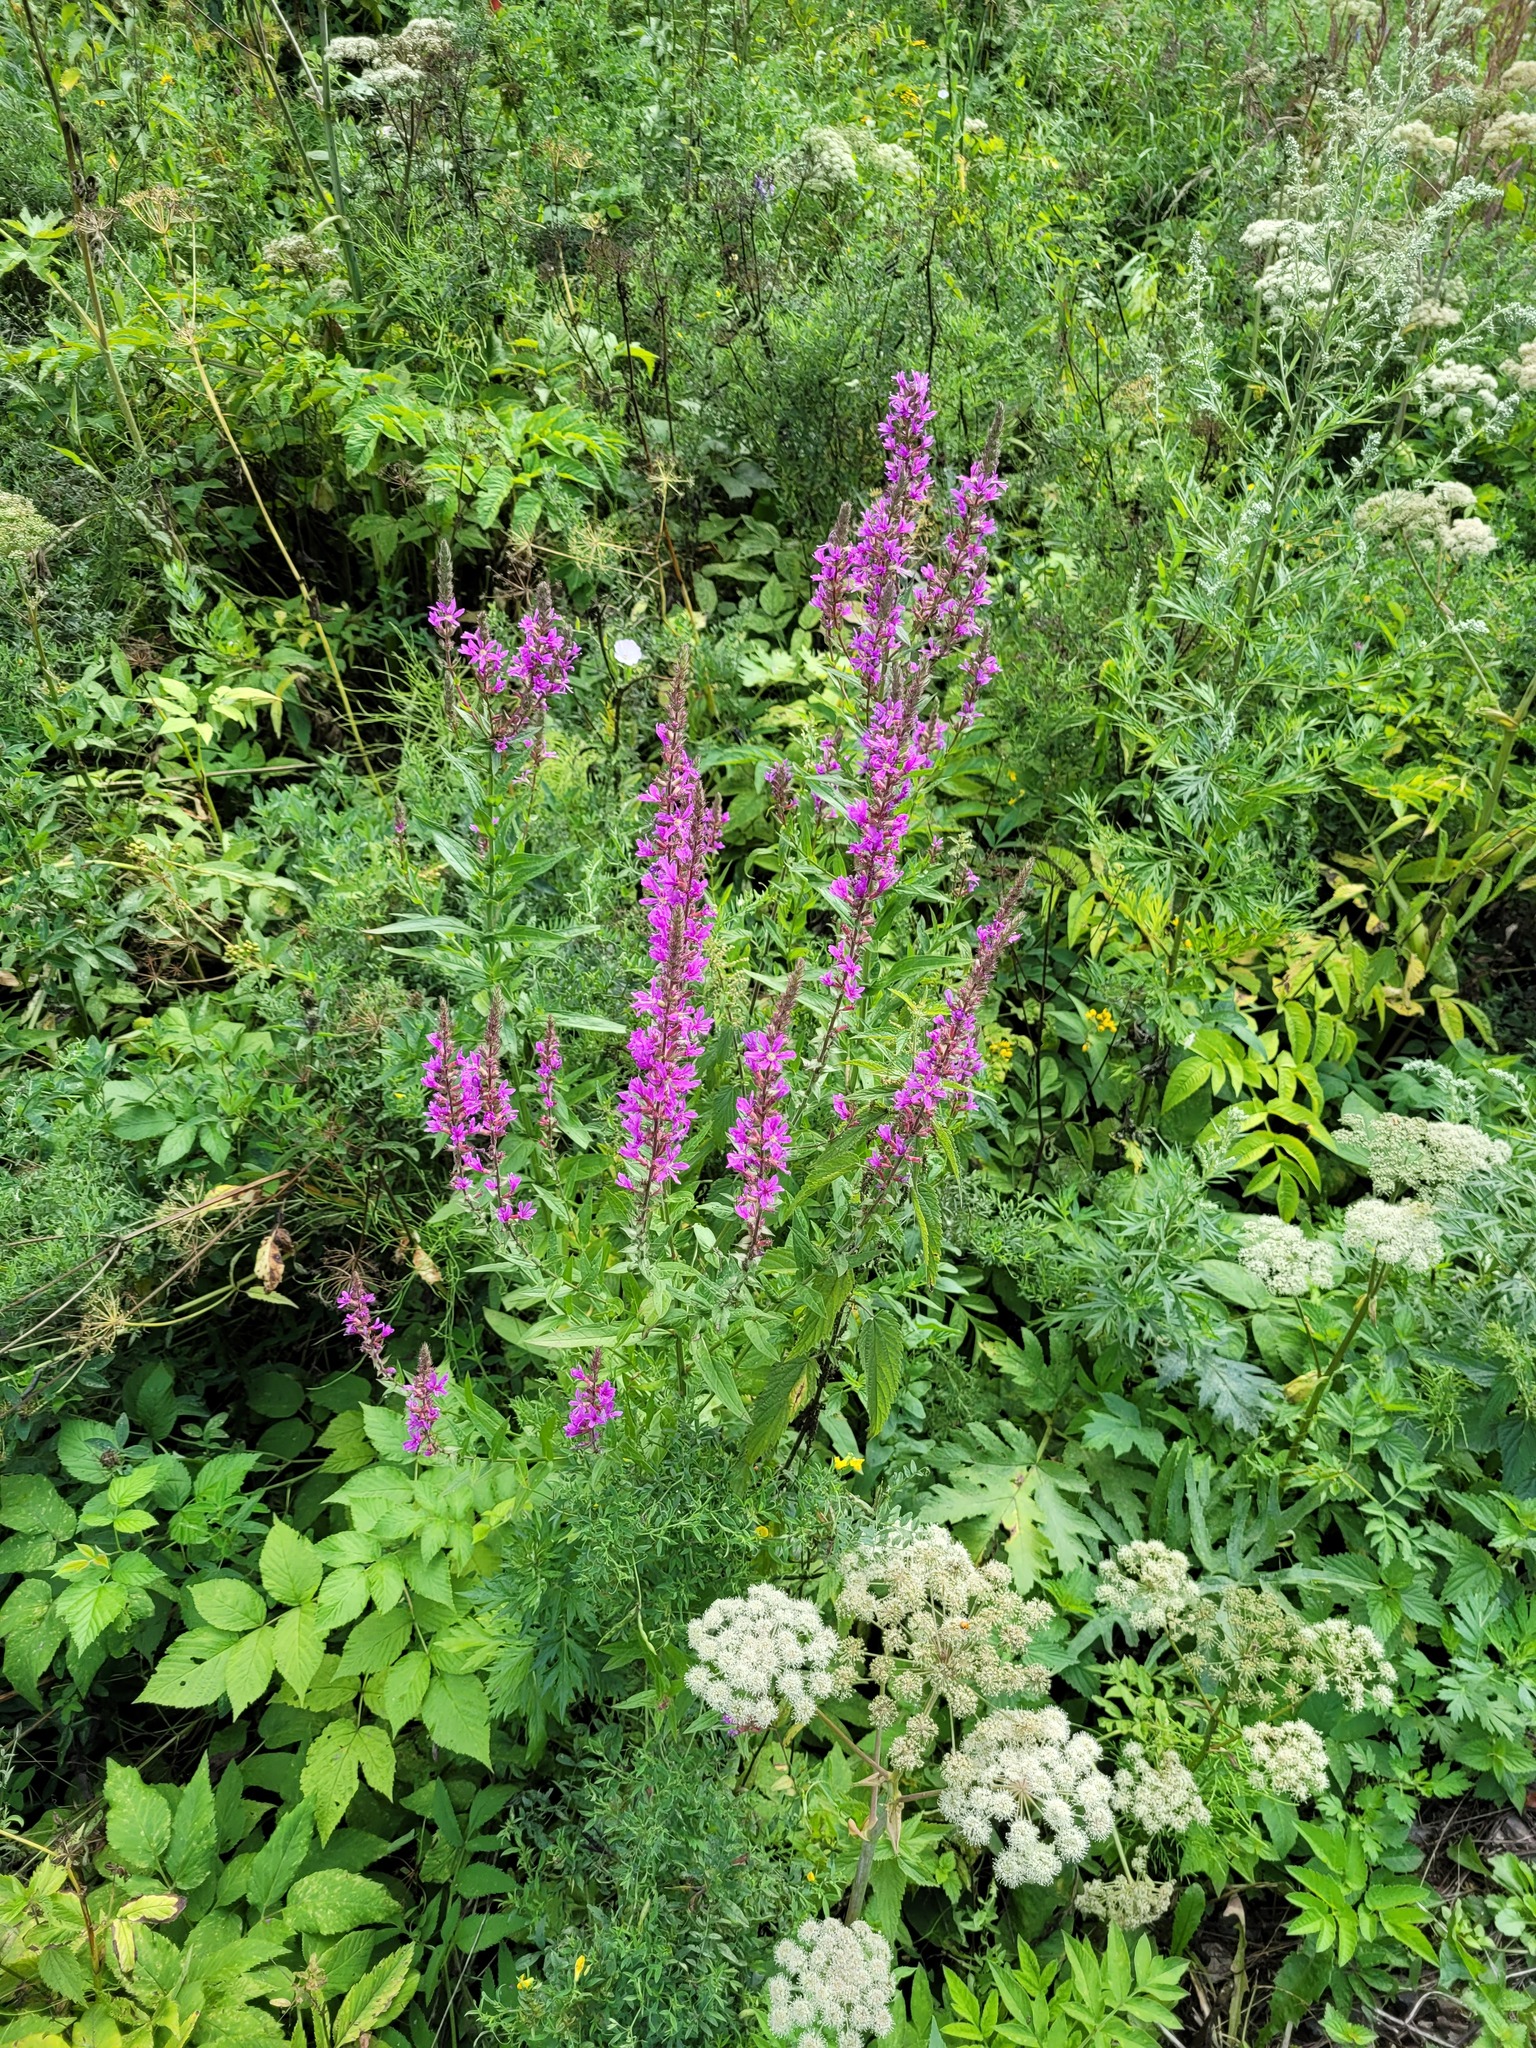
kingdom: Plantae
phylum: Tracheophyta
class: Magnoliopsida
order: Myrtales
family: Lythraceae
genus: Lythrum
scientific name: Lythrum salicaria
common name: Purple loosestrife
